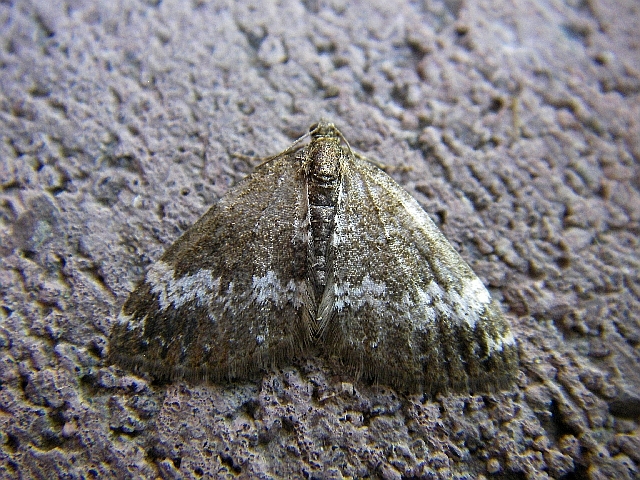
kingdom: Animalia
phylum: Arthropoda
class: Insecta
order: Lepidoptera
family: Geometridae
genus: Perizoma
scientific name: Perizoma alchemillata
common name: Small rivulet
